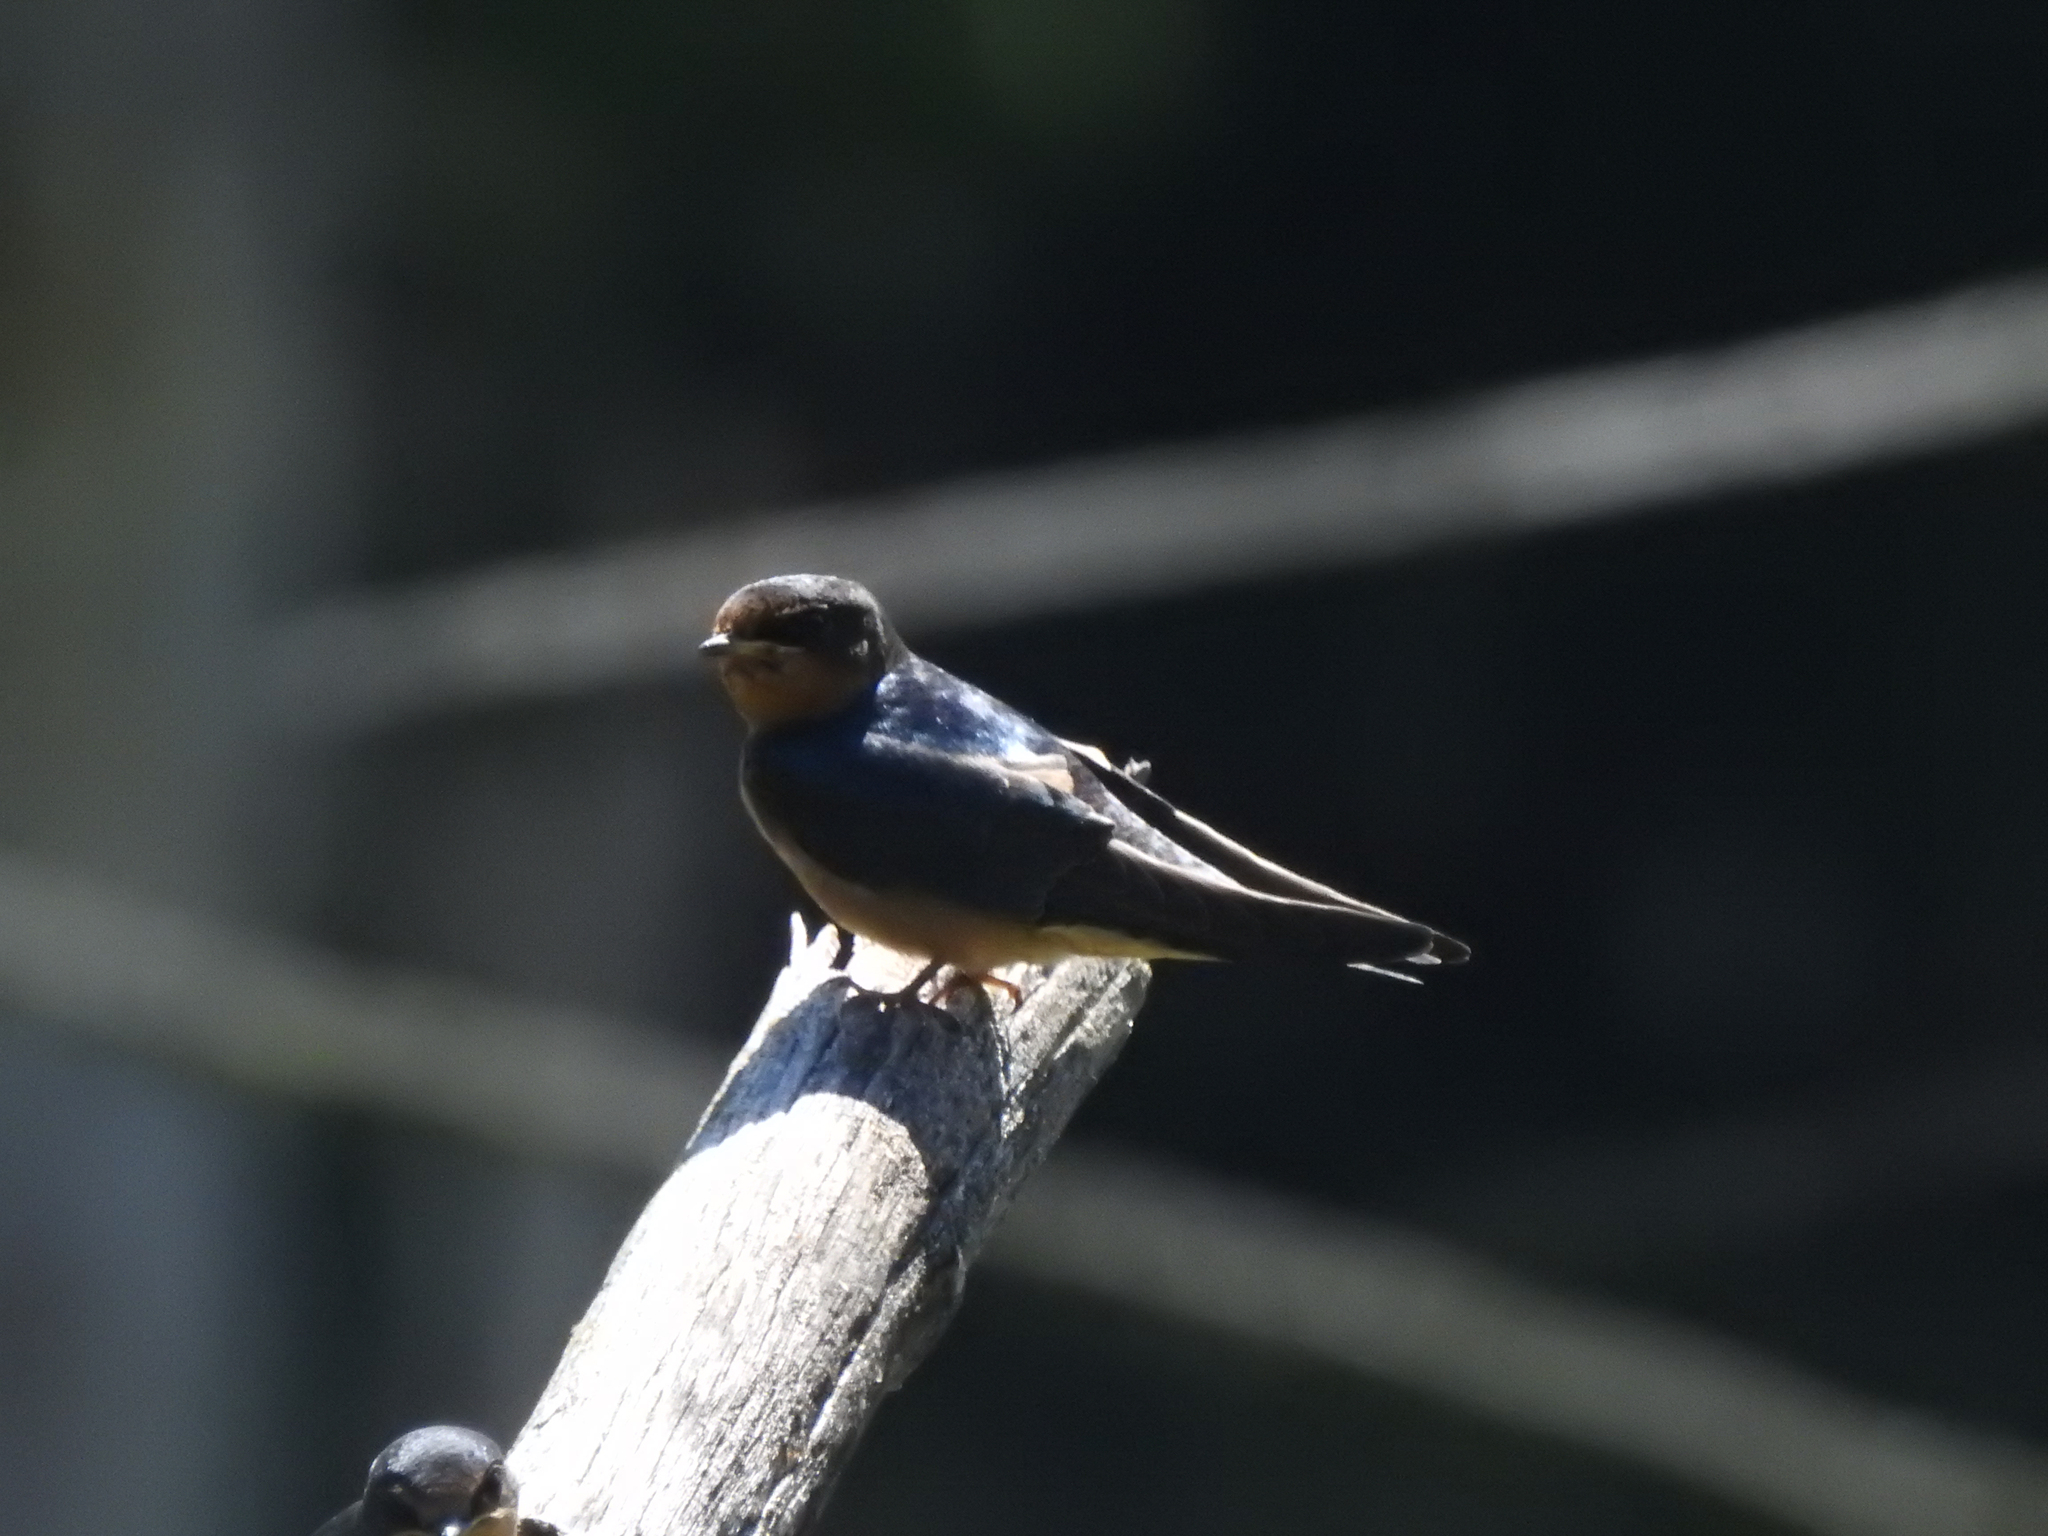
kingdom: Animalia
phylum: Chordata
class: Aves
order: Passeriformes
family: Hirundinidae
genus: Hirundo
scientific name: Hirundo rustica
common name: Barn swallow
